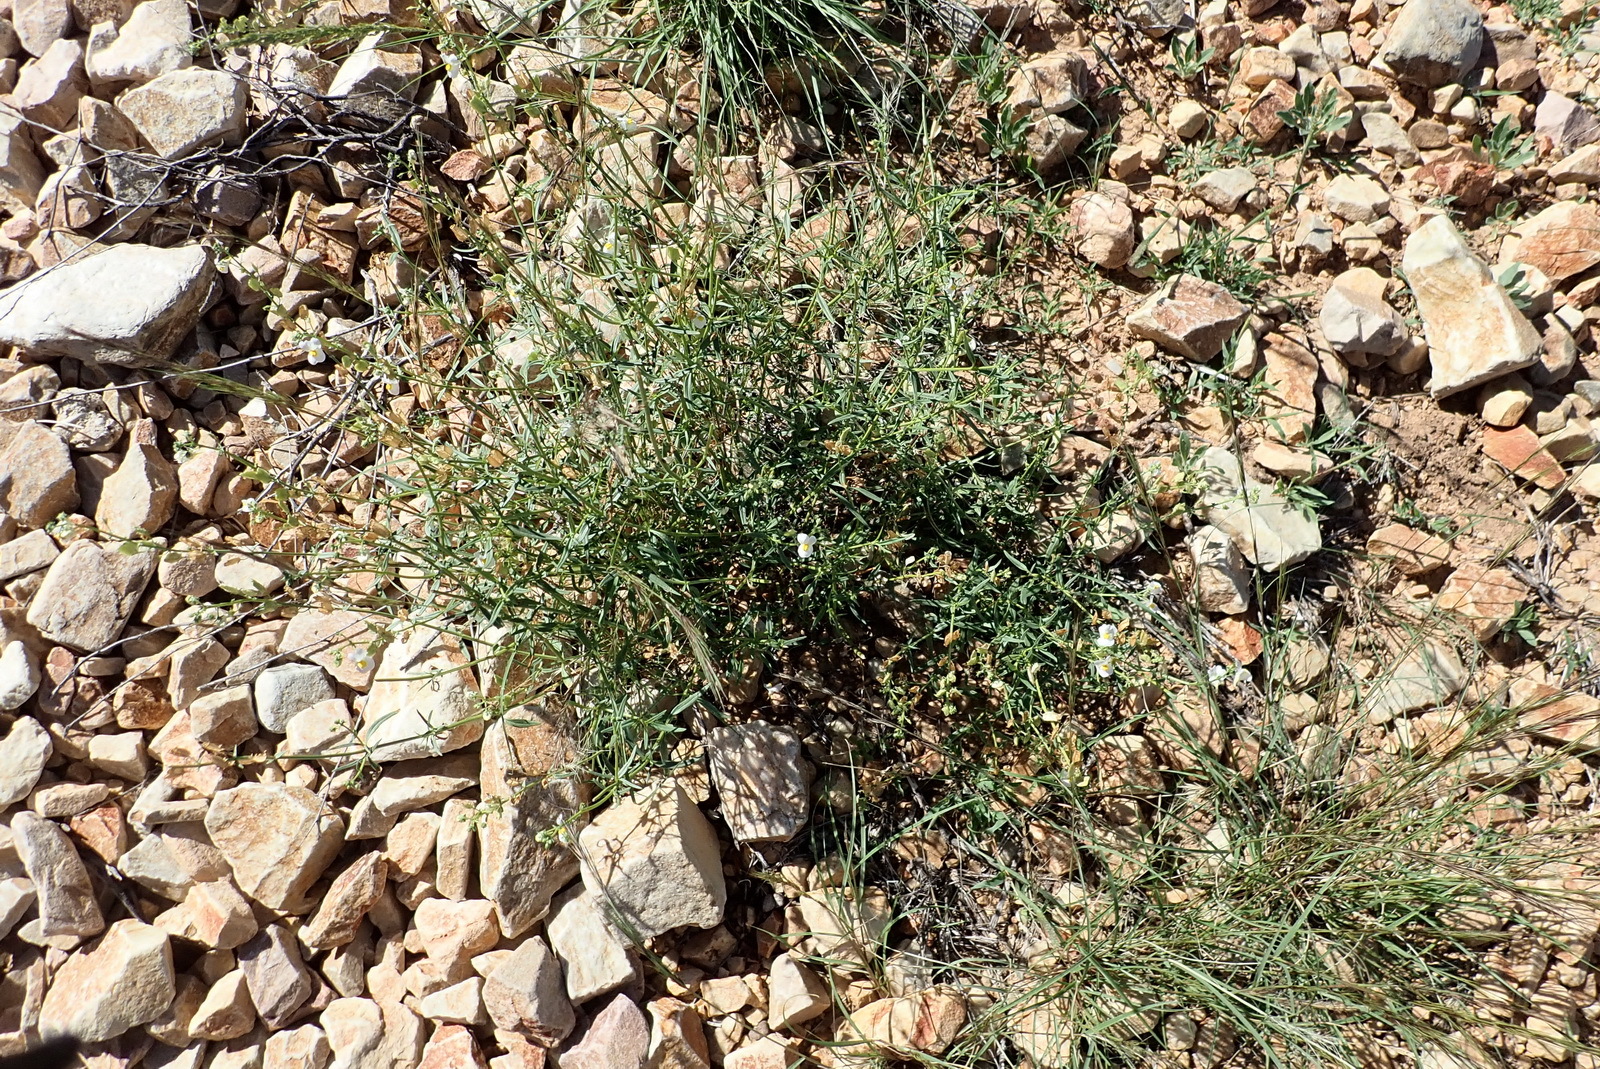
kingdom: Plantae
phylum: Tracheophyta
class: Magnoliopsida
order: Lamiales
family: Scrophulariaceae
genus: Nemesia
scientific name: Nemesia fruticans
